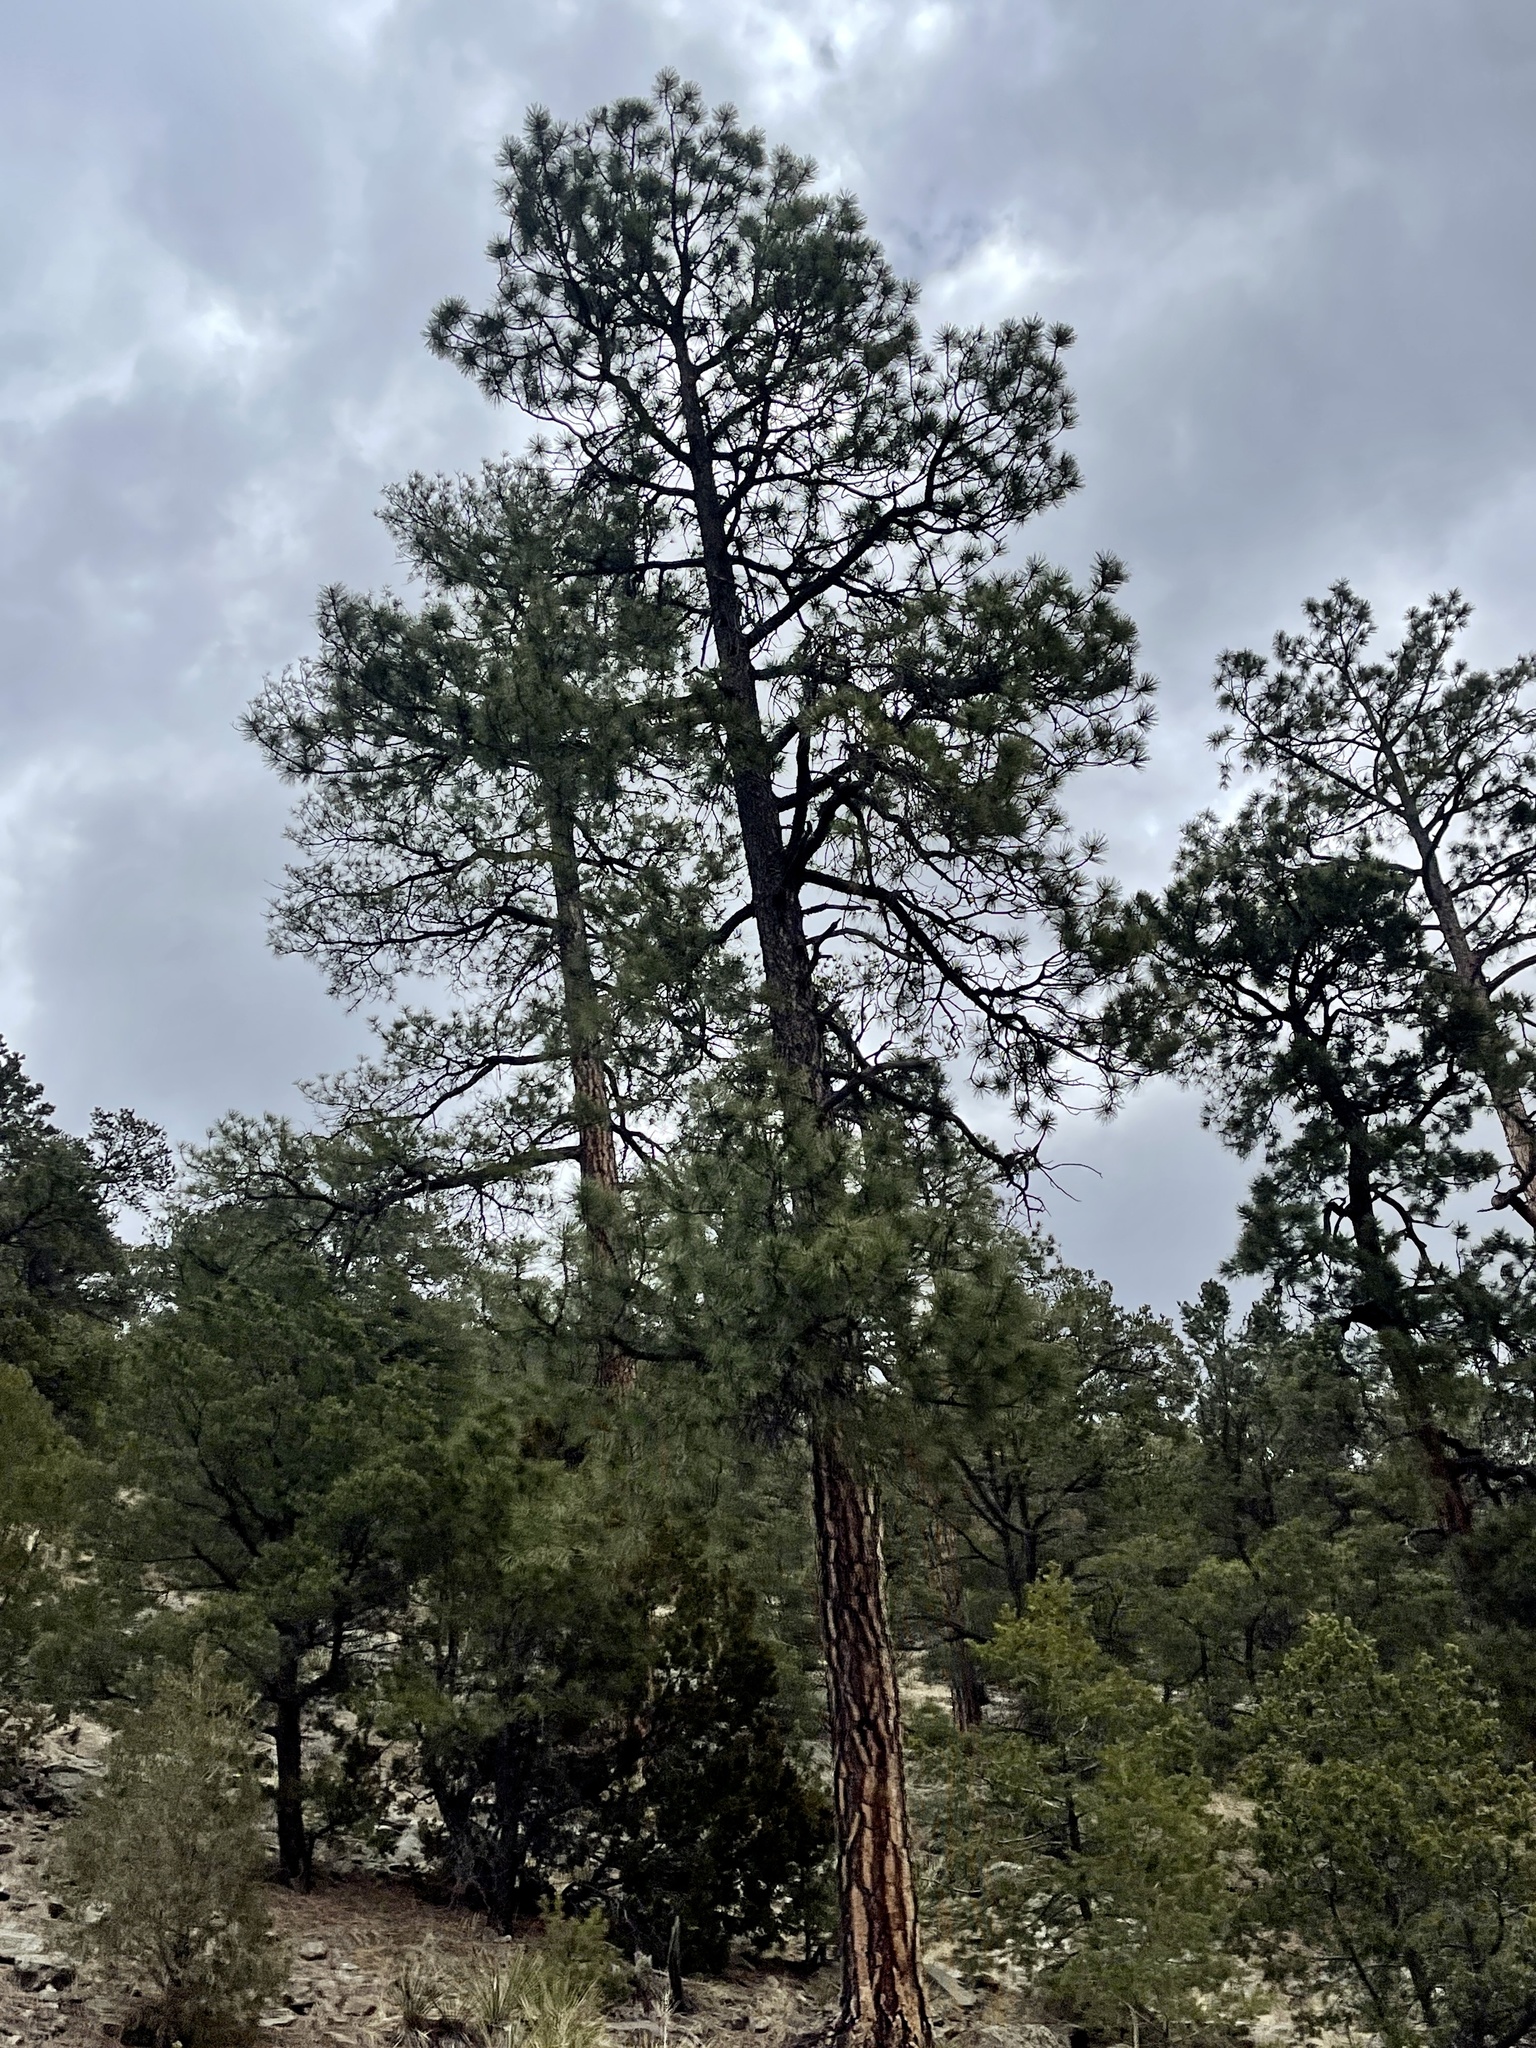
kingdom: Plantae
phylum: Tracheophyta
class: Pinopsida
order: Pinales
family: Pinaceae
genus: Pinus
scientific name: Pinus ponderosa
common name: Western yellow-pine
